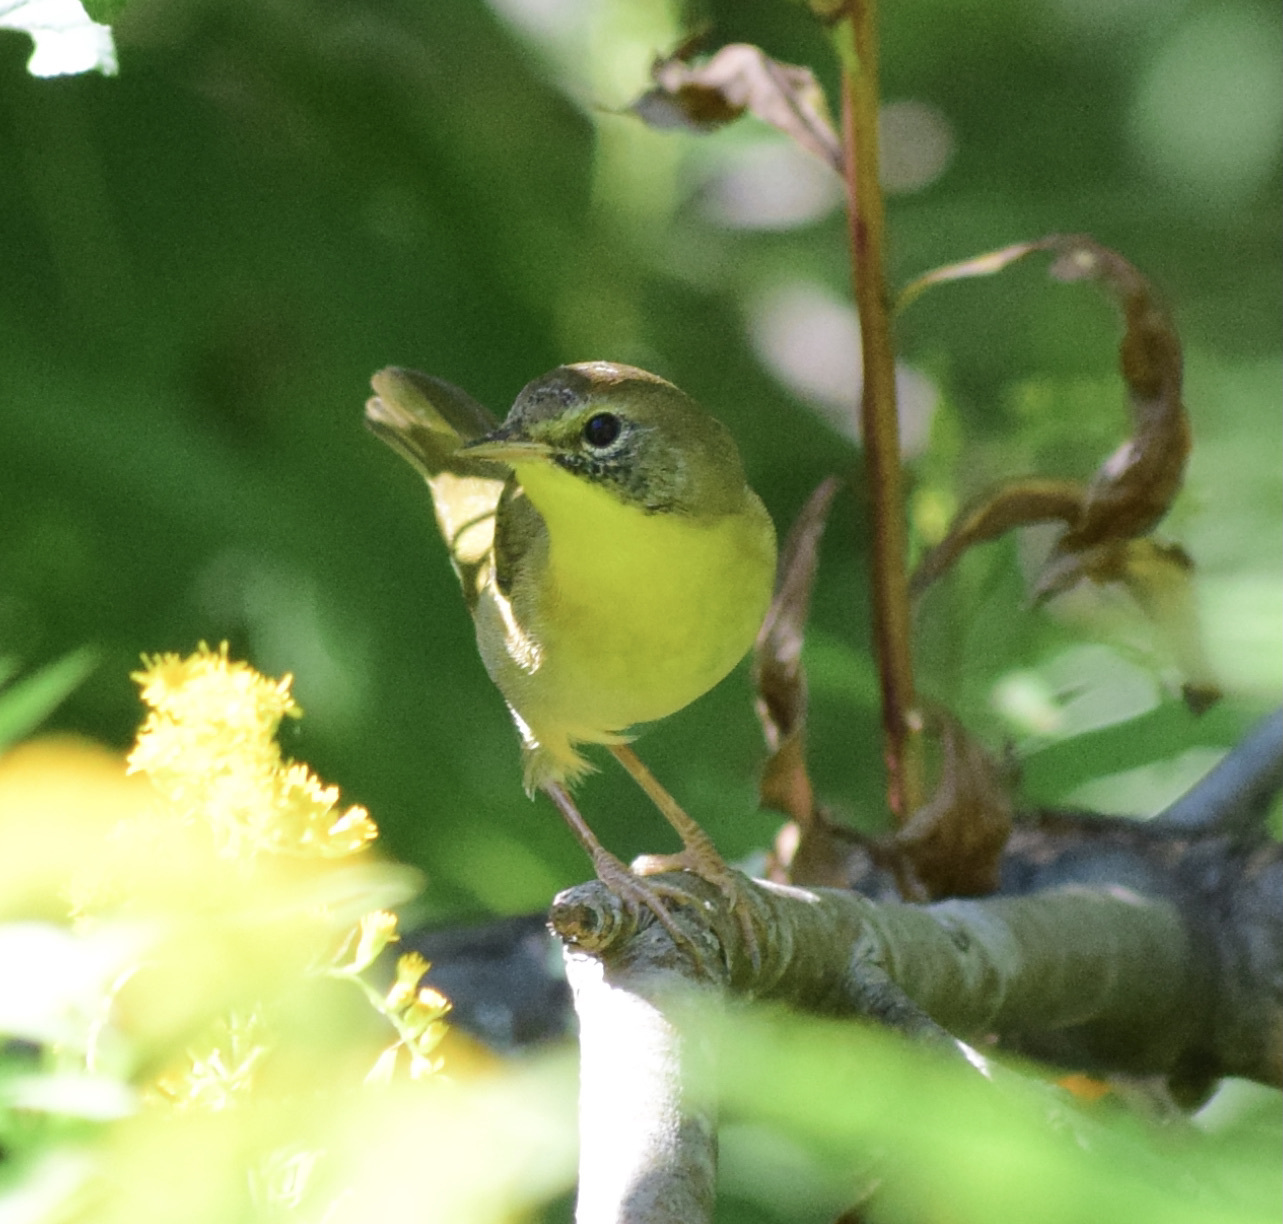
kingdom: Animalia
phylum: Chordata
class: Aves
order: Passeriformes
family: Parulidae
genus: Geothlypis
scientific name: Geothlypis trichas
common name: Common yellowthroat
